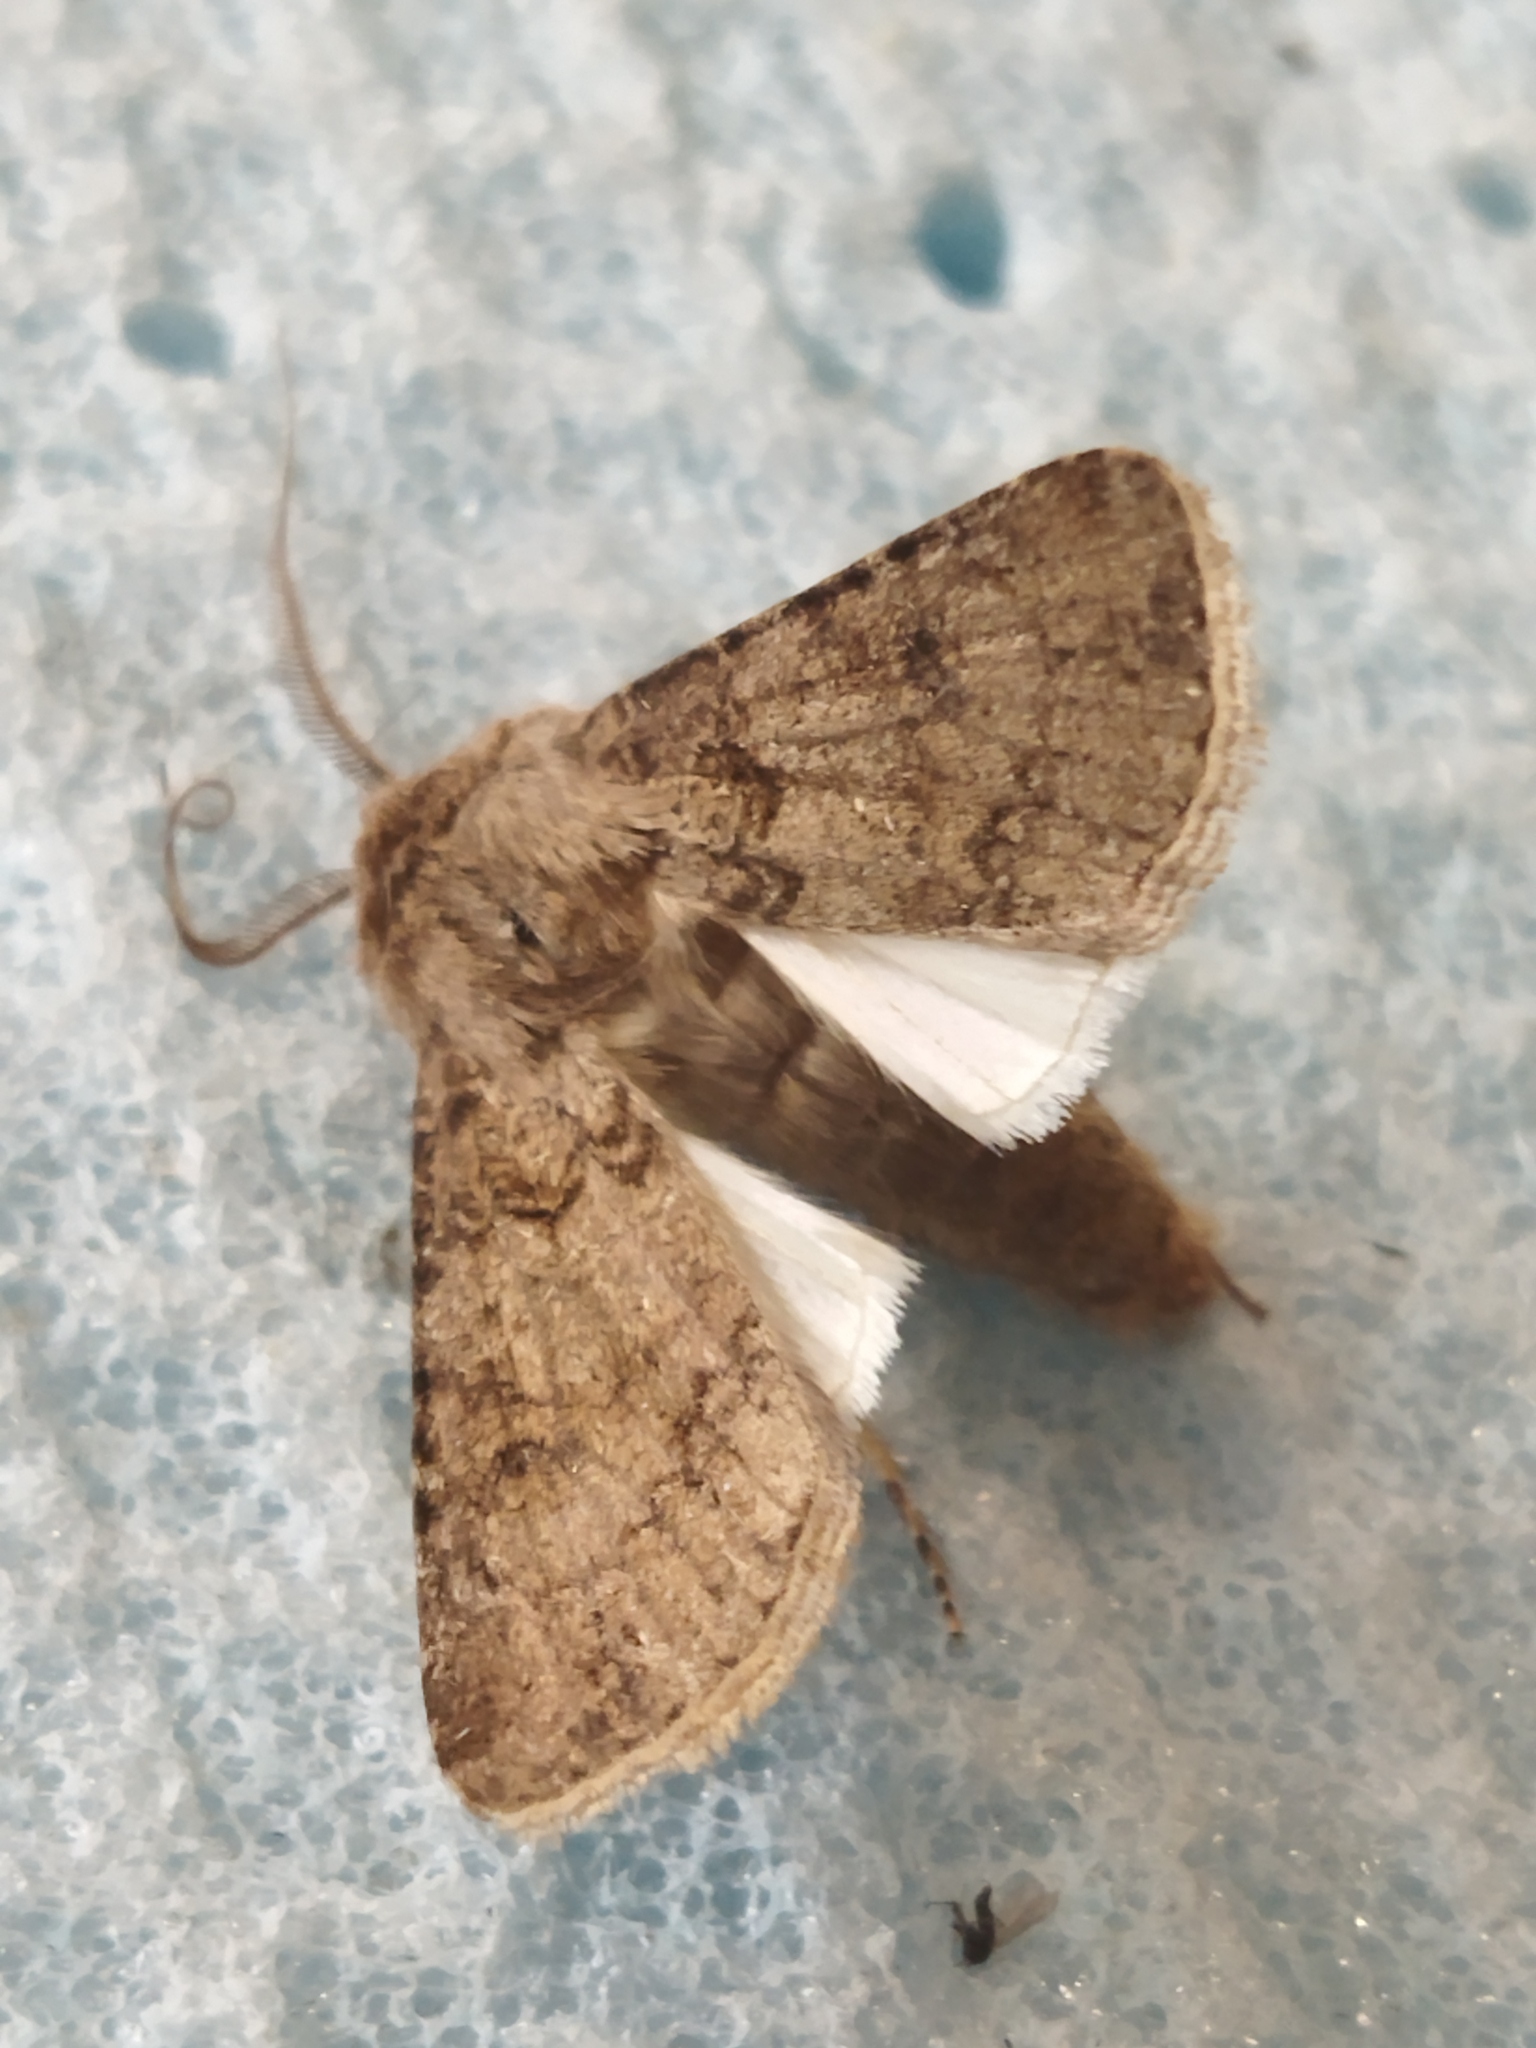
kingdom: Animalia
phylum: Arthropoda
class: Insecta
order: Lepidoptera
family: Noctuidae
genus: Agrotis
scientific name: Agrotis segetum
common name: Turnip moth
